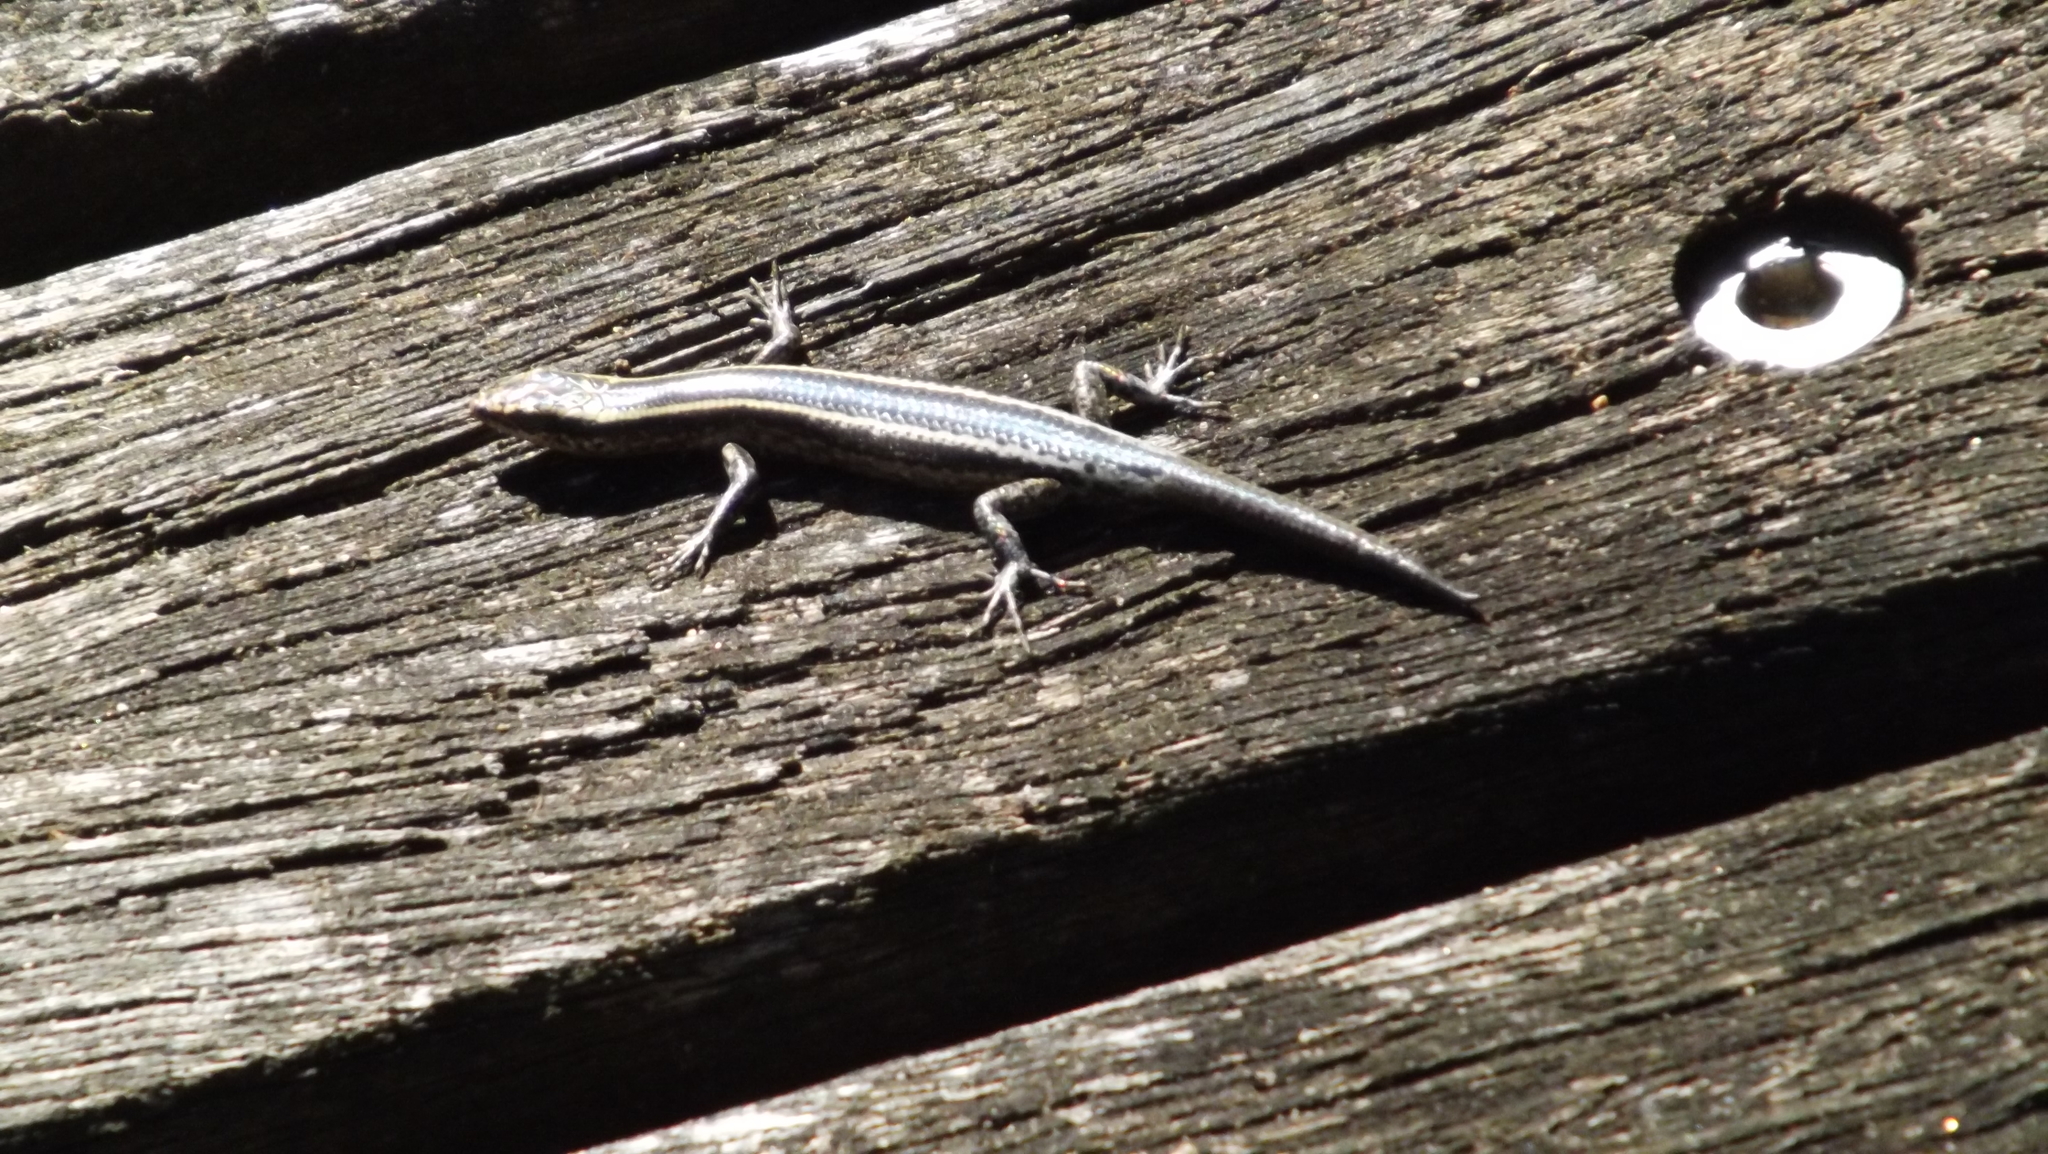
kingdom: Animalia
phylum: Chordata
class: Squamata
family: Scincidae
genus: Cryptoblepharus
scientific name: Cryptoblepharus pulcher
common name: Elegant snake-eyed skink
